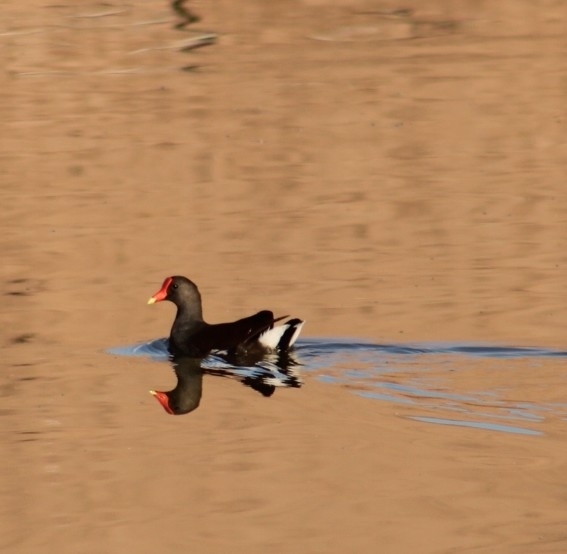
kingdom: Animalia
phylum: Chordata
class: Aves
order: Gruiformes
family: Rallidae
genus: Gallinula
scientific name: Gallinula chloropus
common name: Common moorhen
